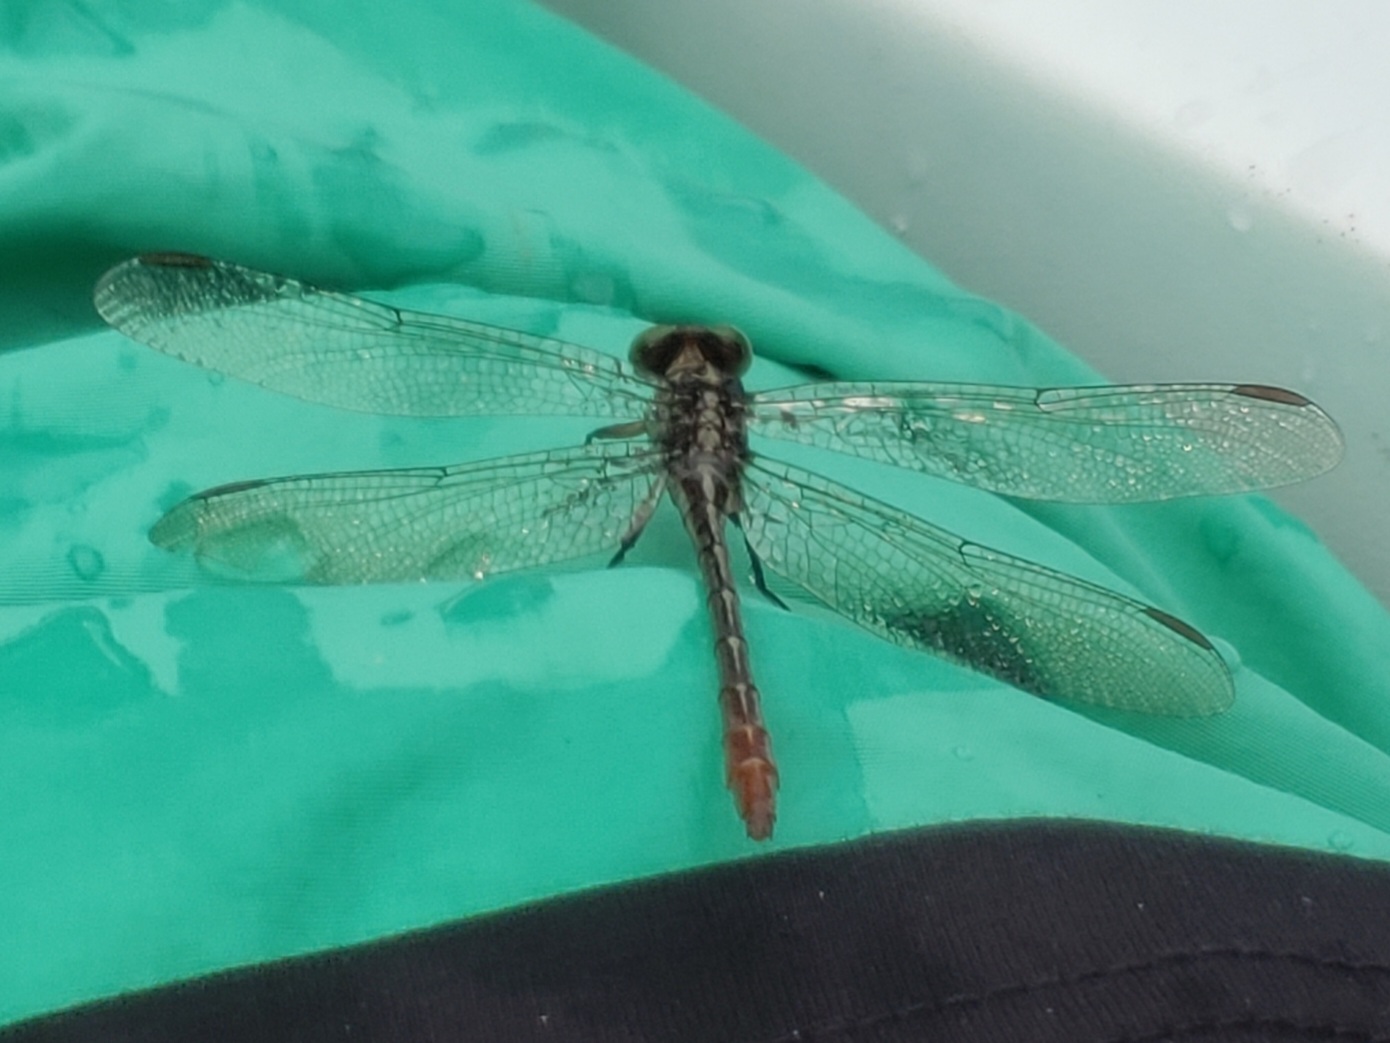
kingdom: Animalia
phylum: Arthropoda
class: Insecta
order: Odonata
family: Gomphidae
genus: Stylurus
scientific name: Stylurus plagiatus
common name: Russet-tipped clubtail
